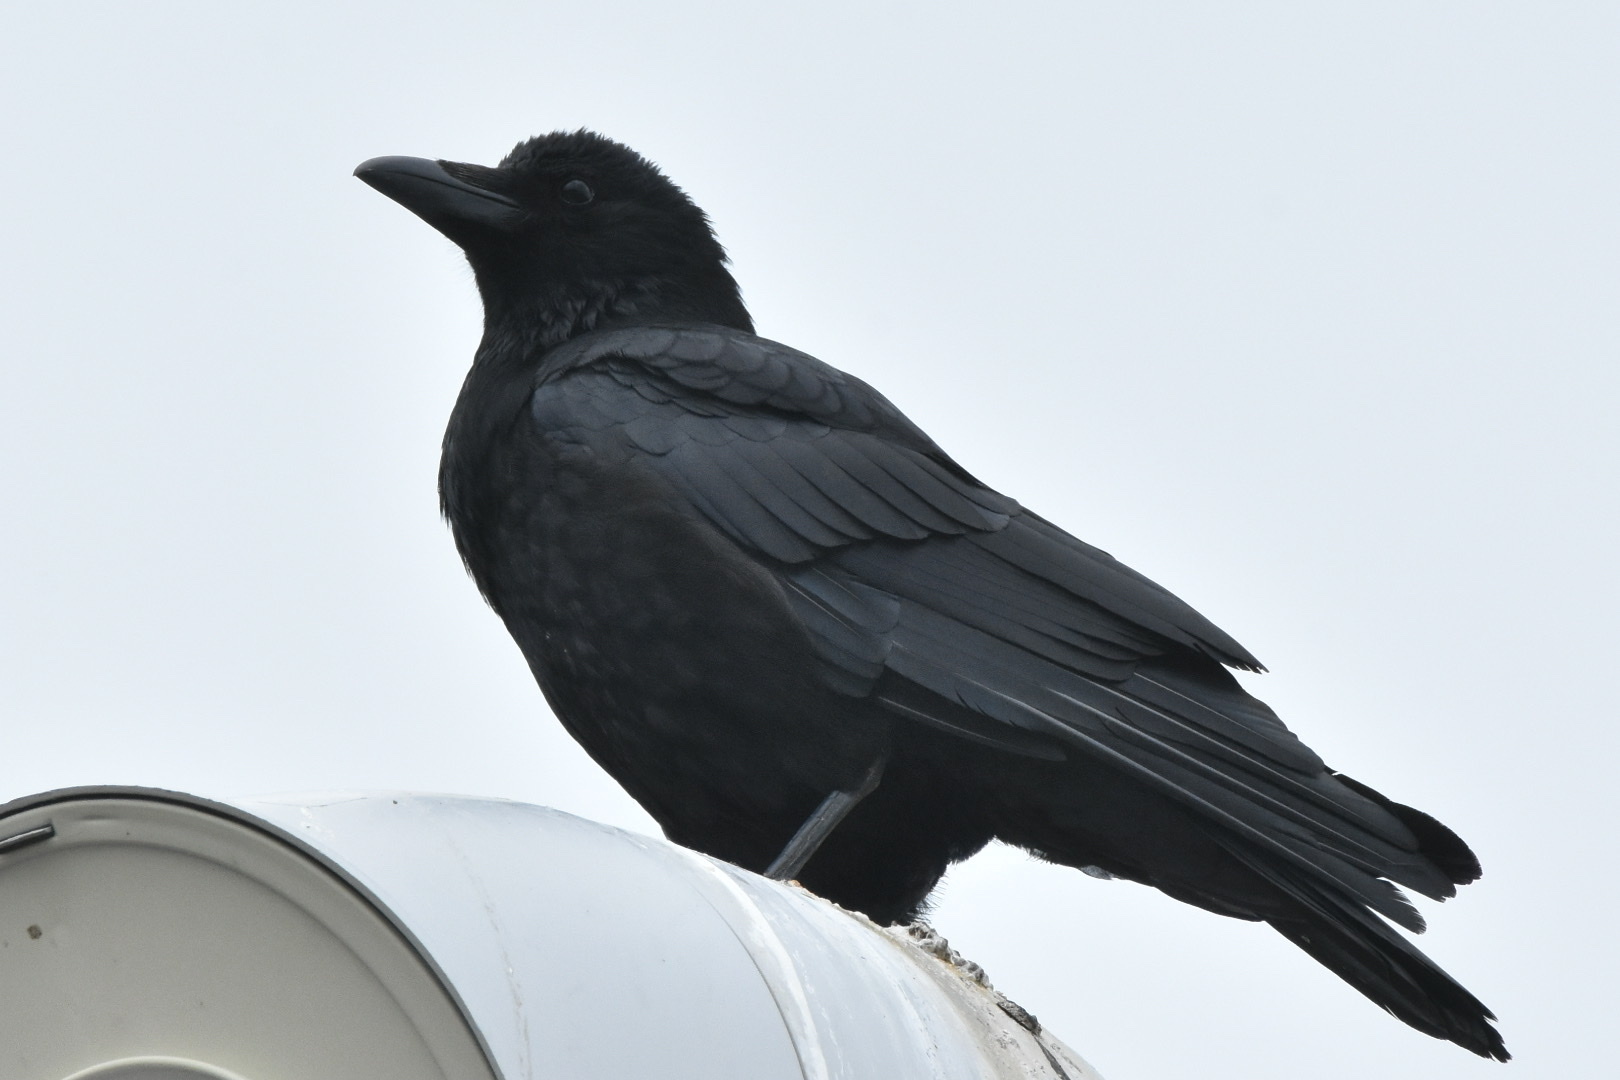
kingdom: Animalia
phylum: Chordata
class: Aves
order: Passeriformes
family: Corvidae
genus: Corvus
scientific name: Corvus corone
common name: Carrion crow
